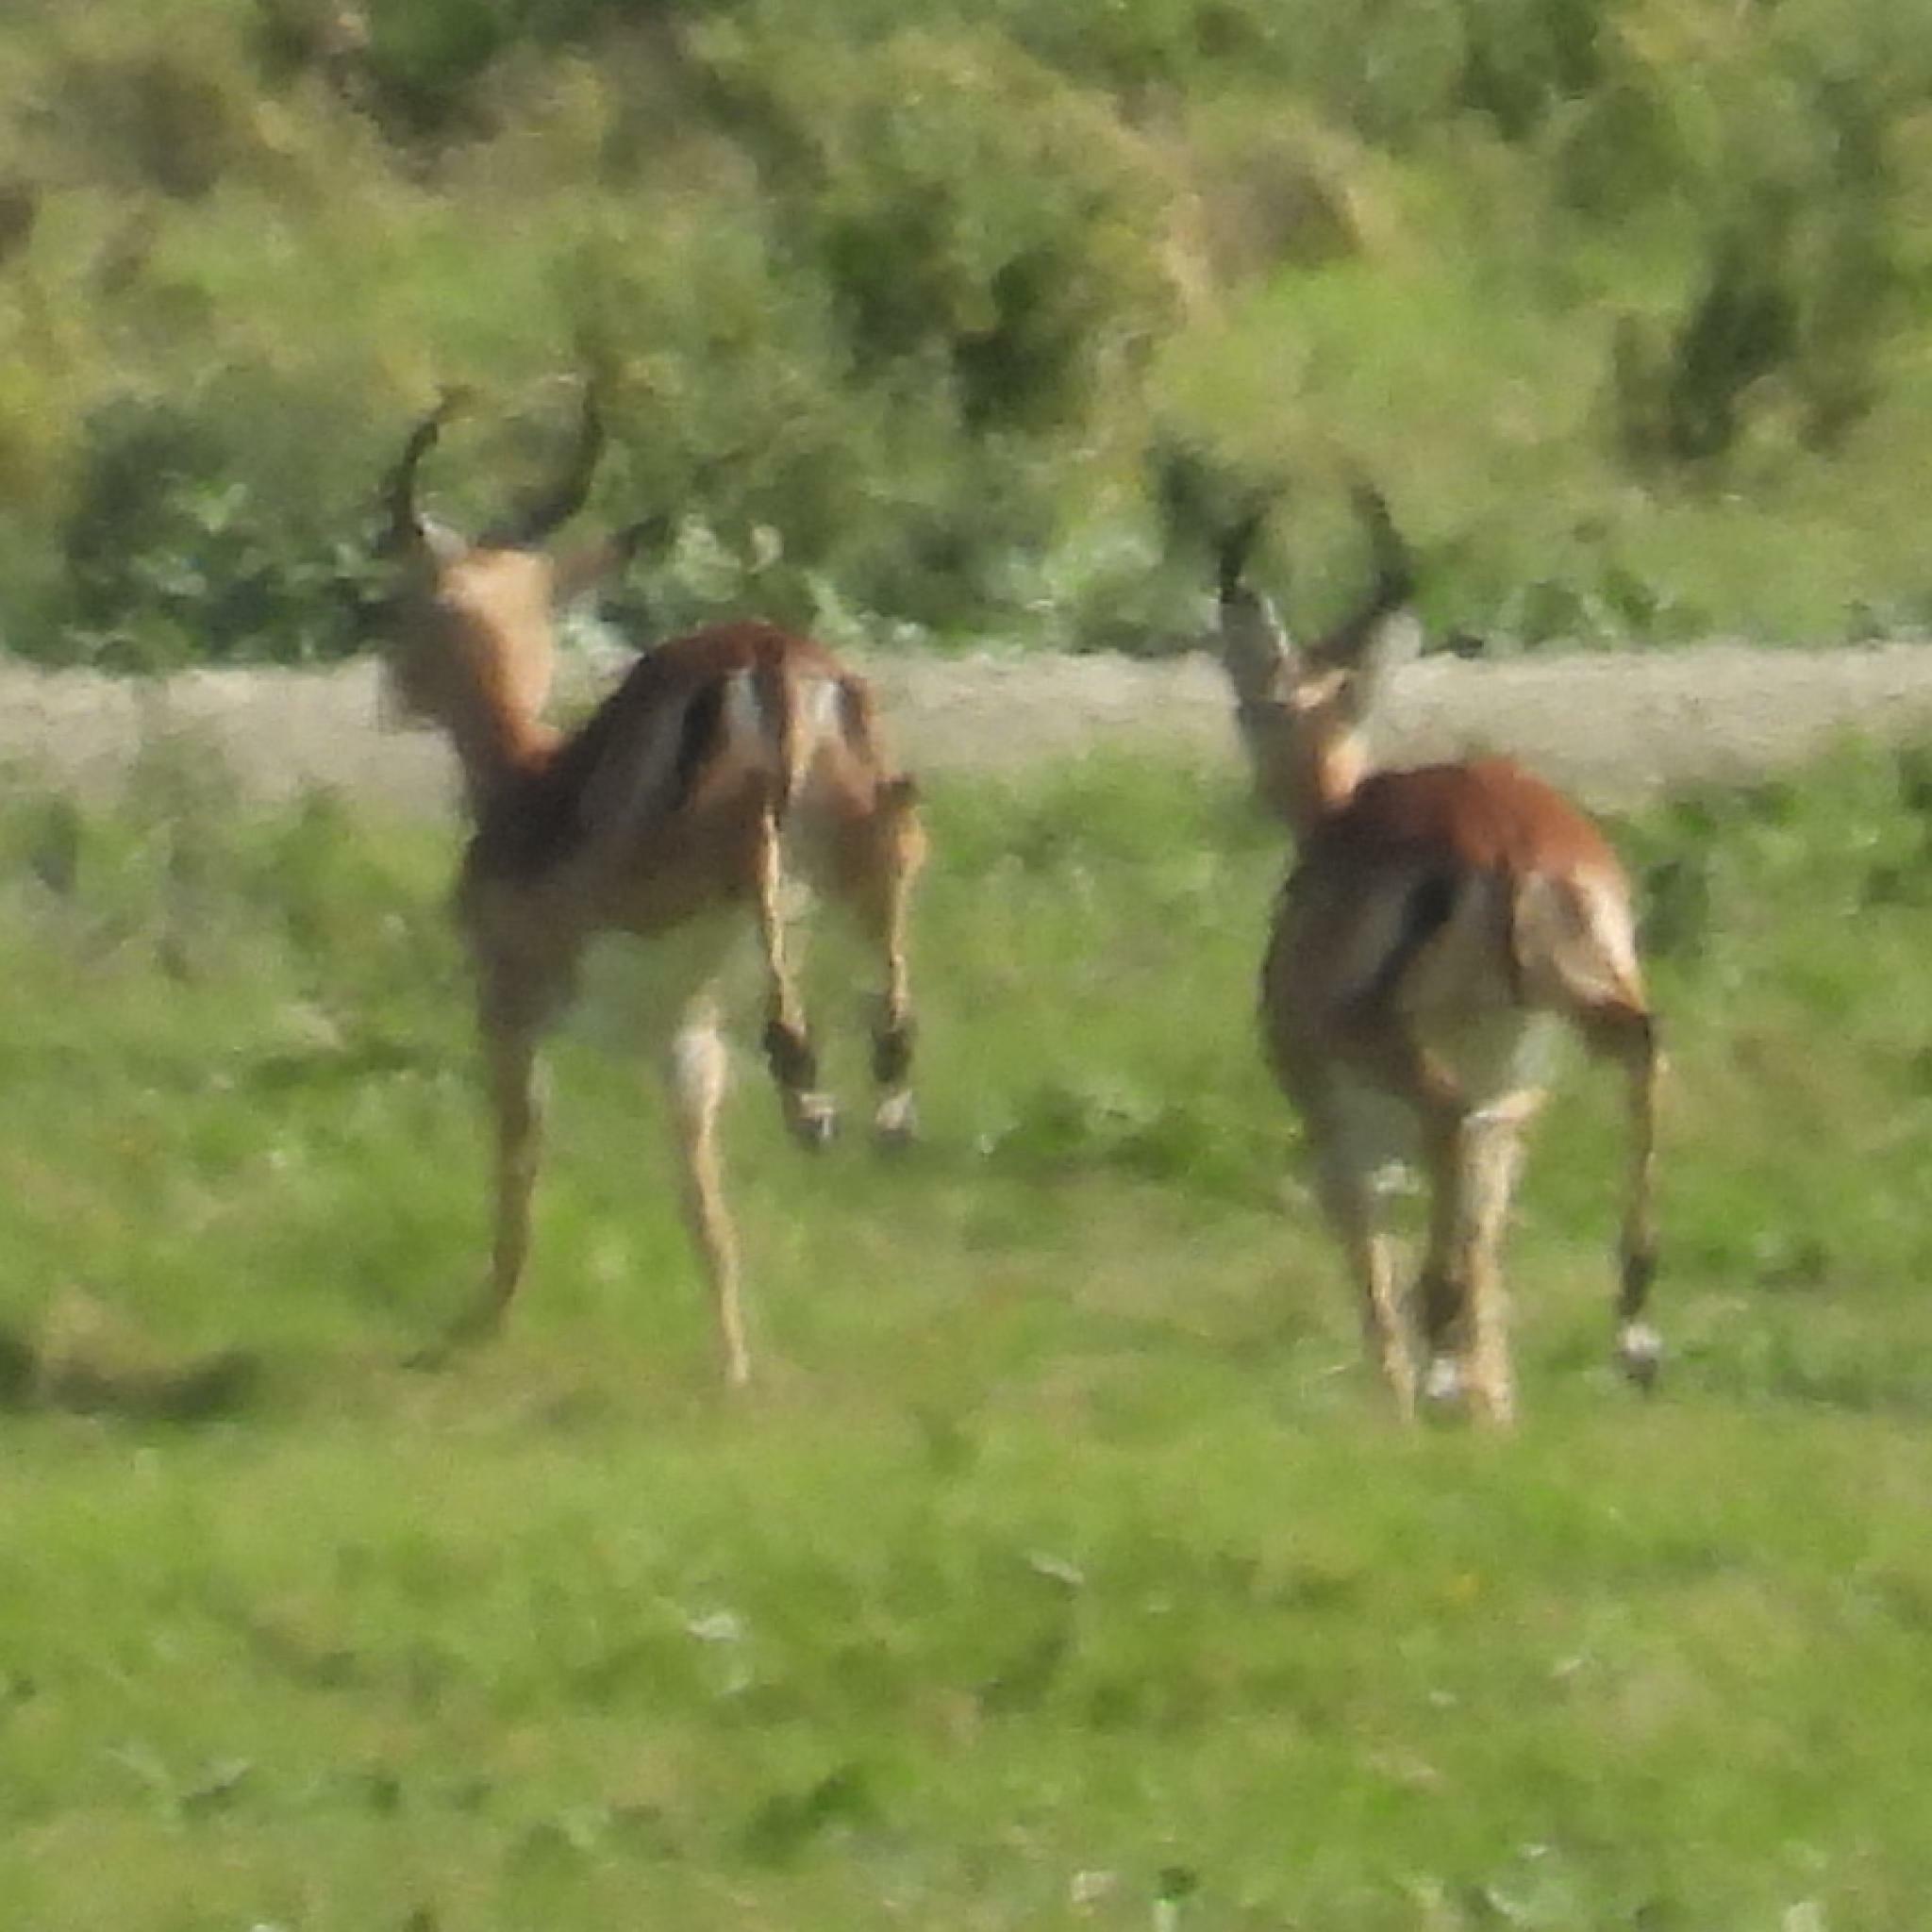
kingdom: Animalia
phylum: Chordata
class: Mammalia
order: Artiodactyla
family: Bovidae
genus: Aepyceros
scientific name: Aepyceros melampus
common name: Impala
